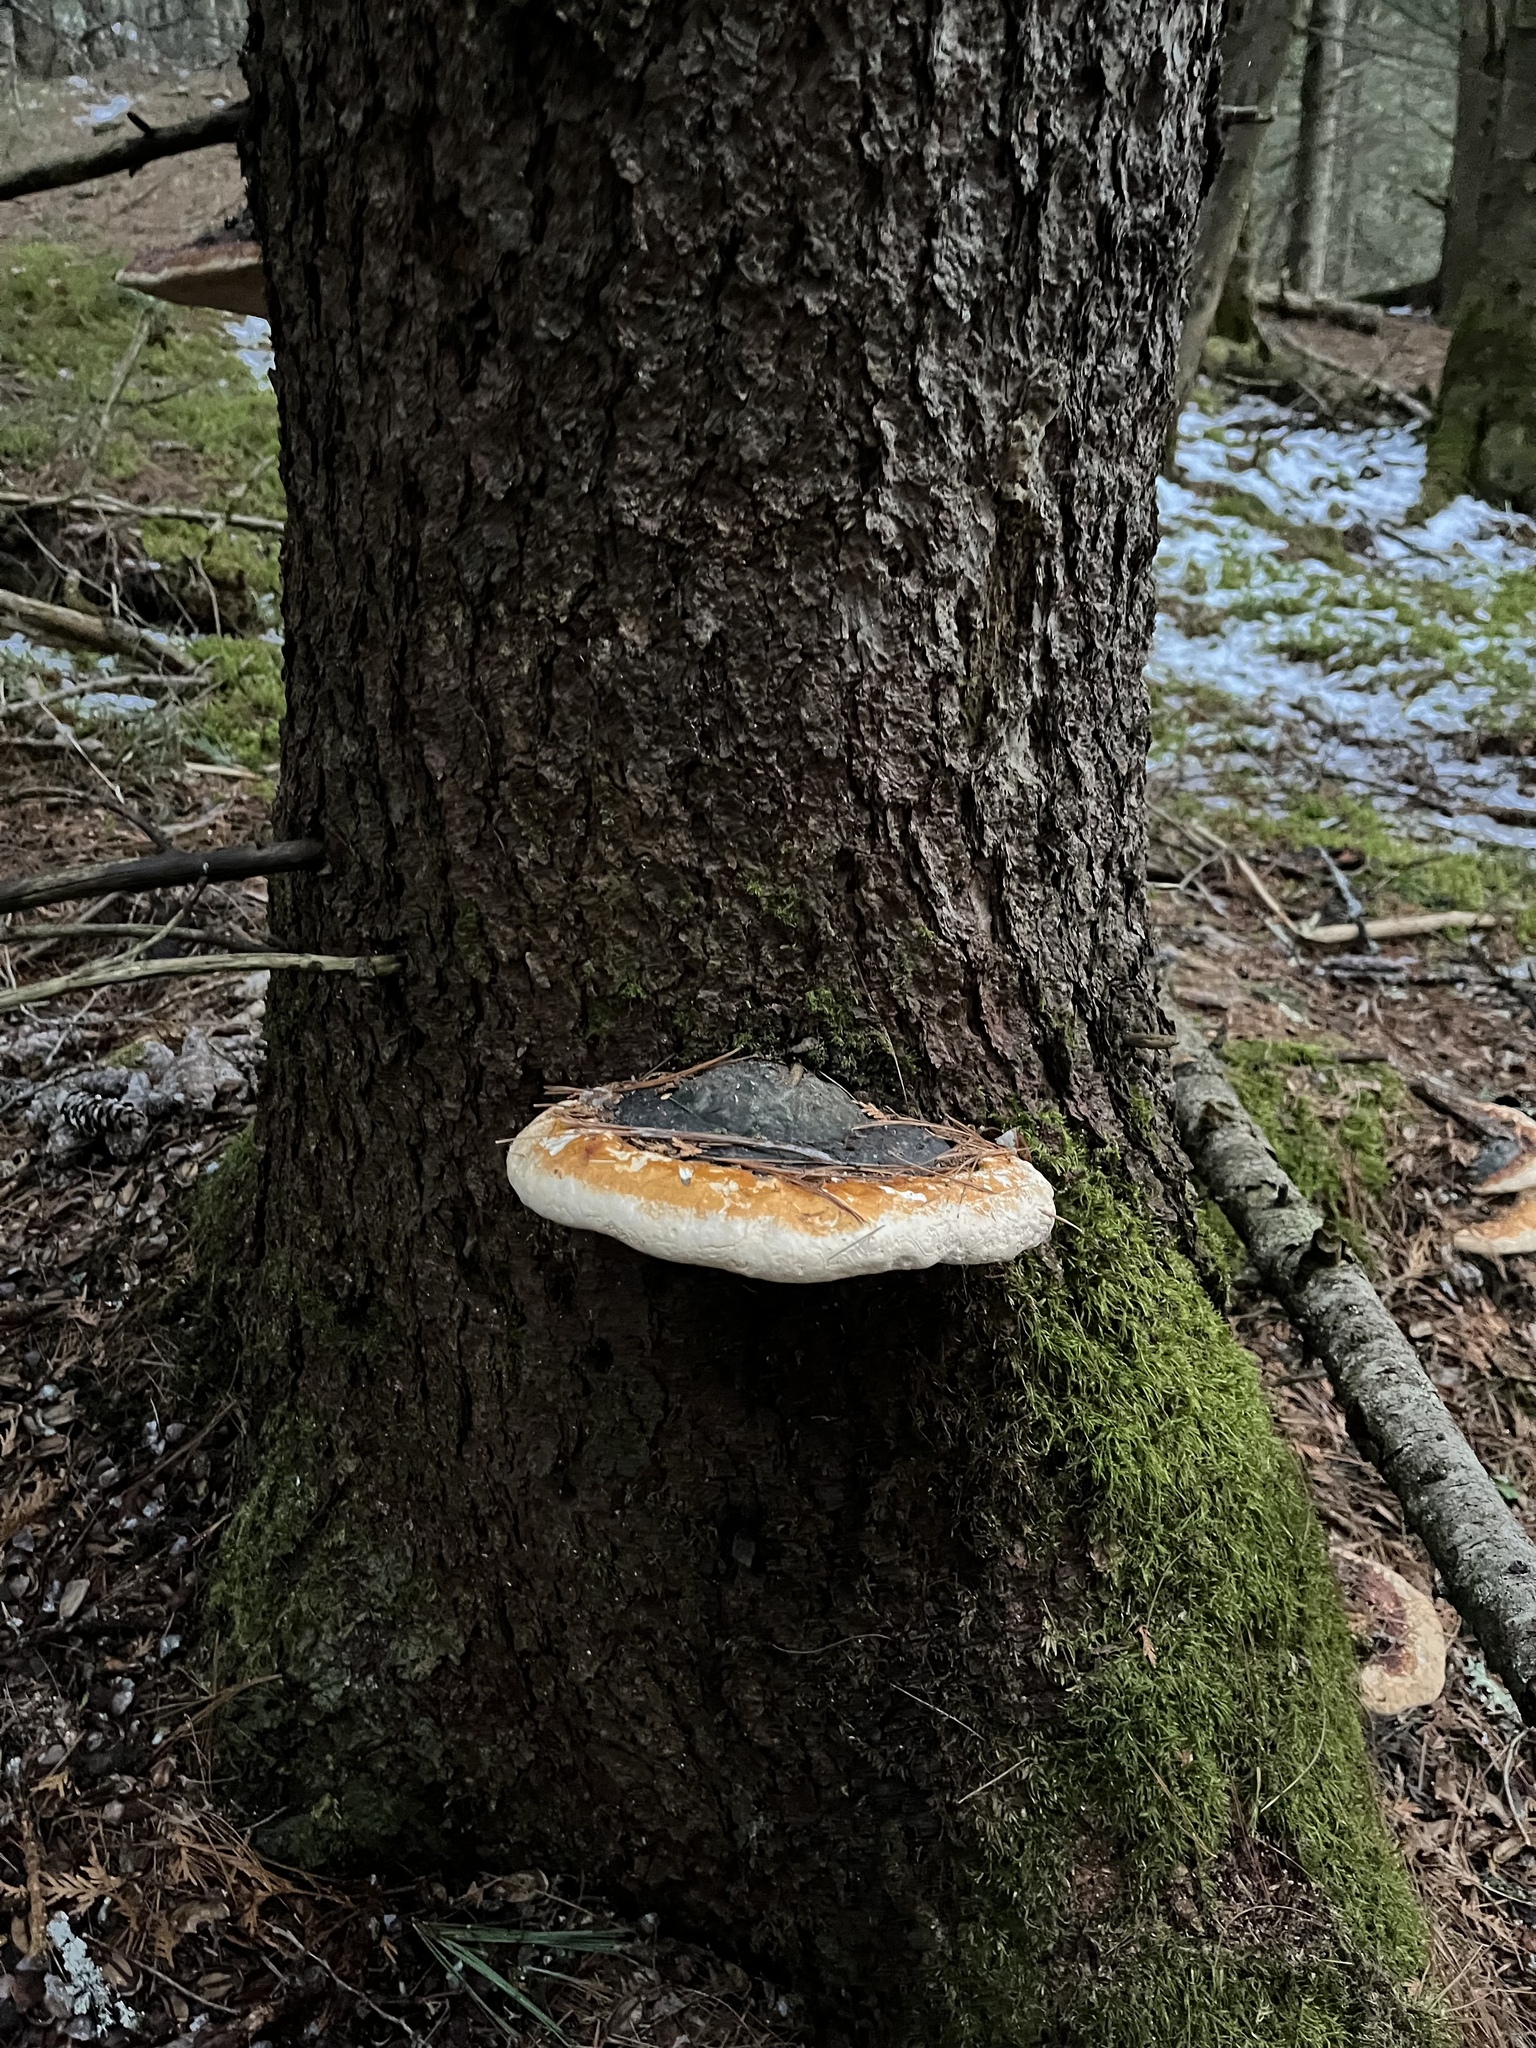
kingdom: Fungi
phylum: Basidiomycota
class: Agaricomycetes
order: Polyporales
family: Fomitopsidaceae
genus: Fomitopsis
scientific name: Fomitopsis mounceae
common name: Northern red belt
